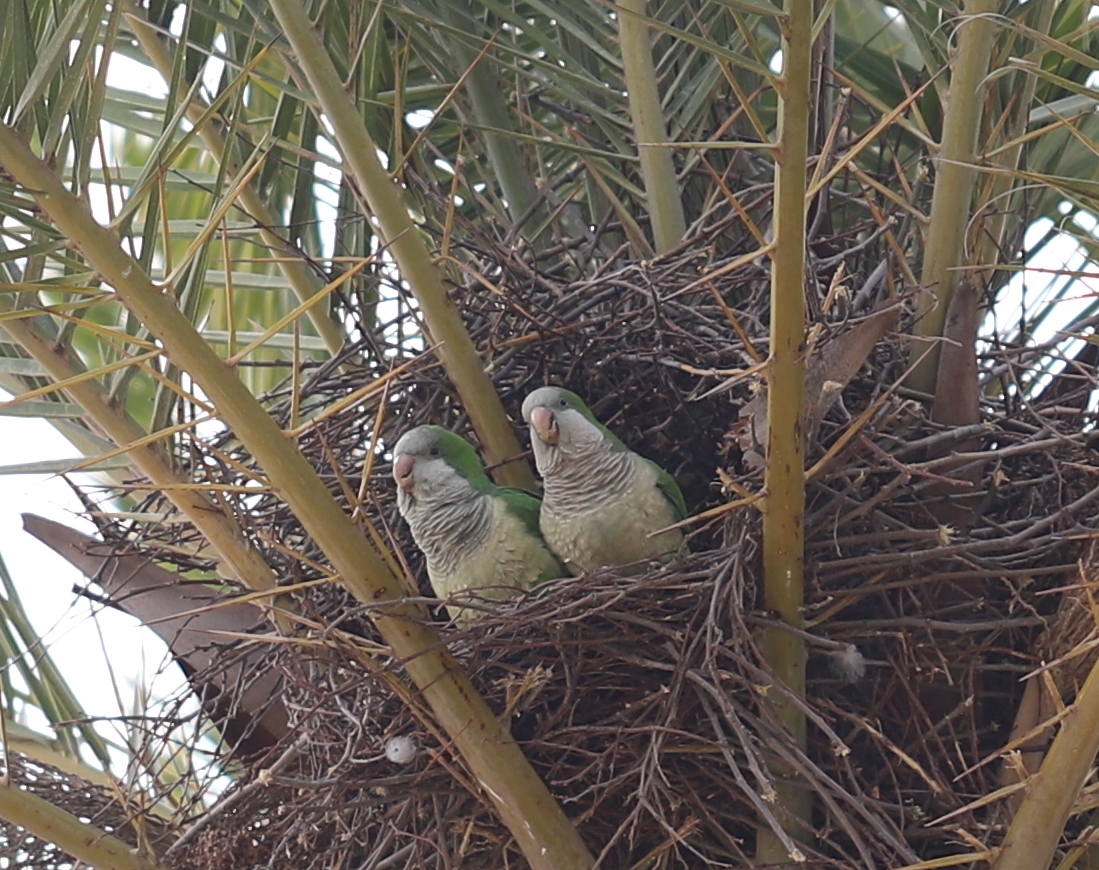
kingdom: Animalia
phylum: Chordata
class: Aves
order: Psittaciformes
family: Psittacidae
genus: Myiopsitta
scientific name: Myiopsitta monachus
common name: Monk parakeet
